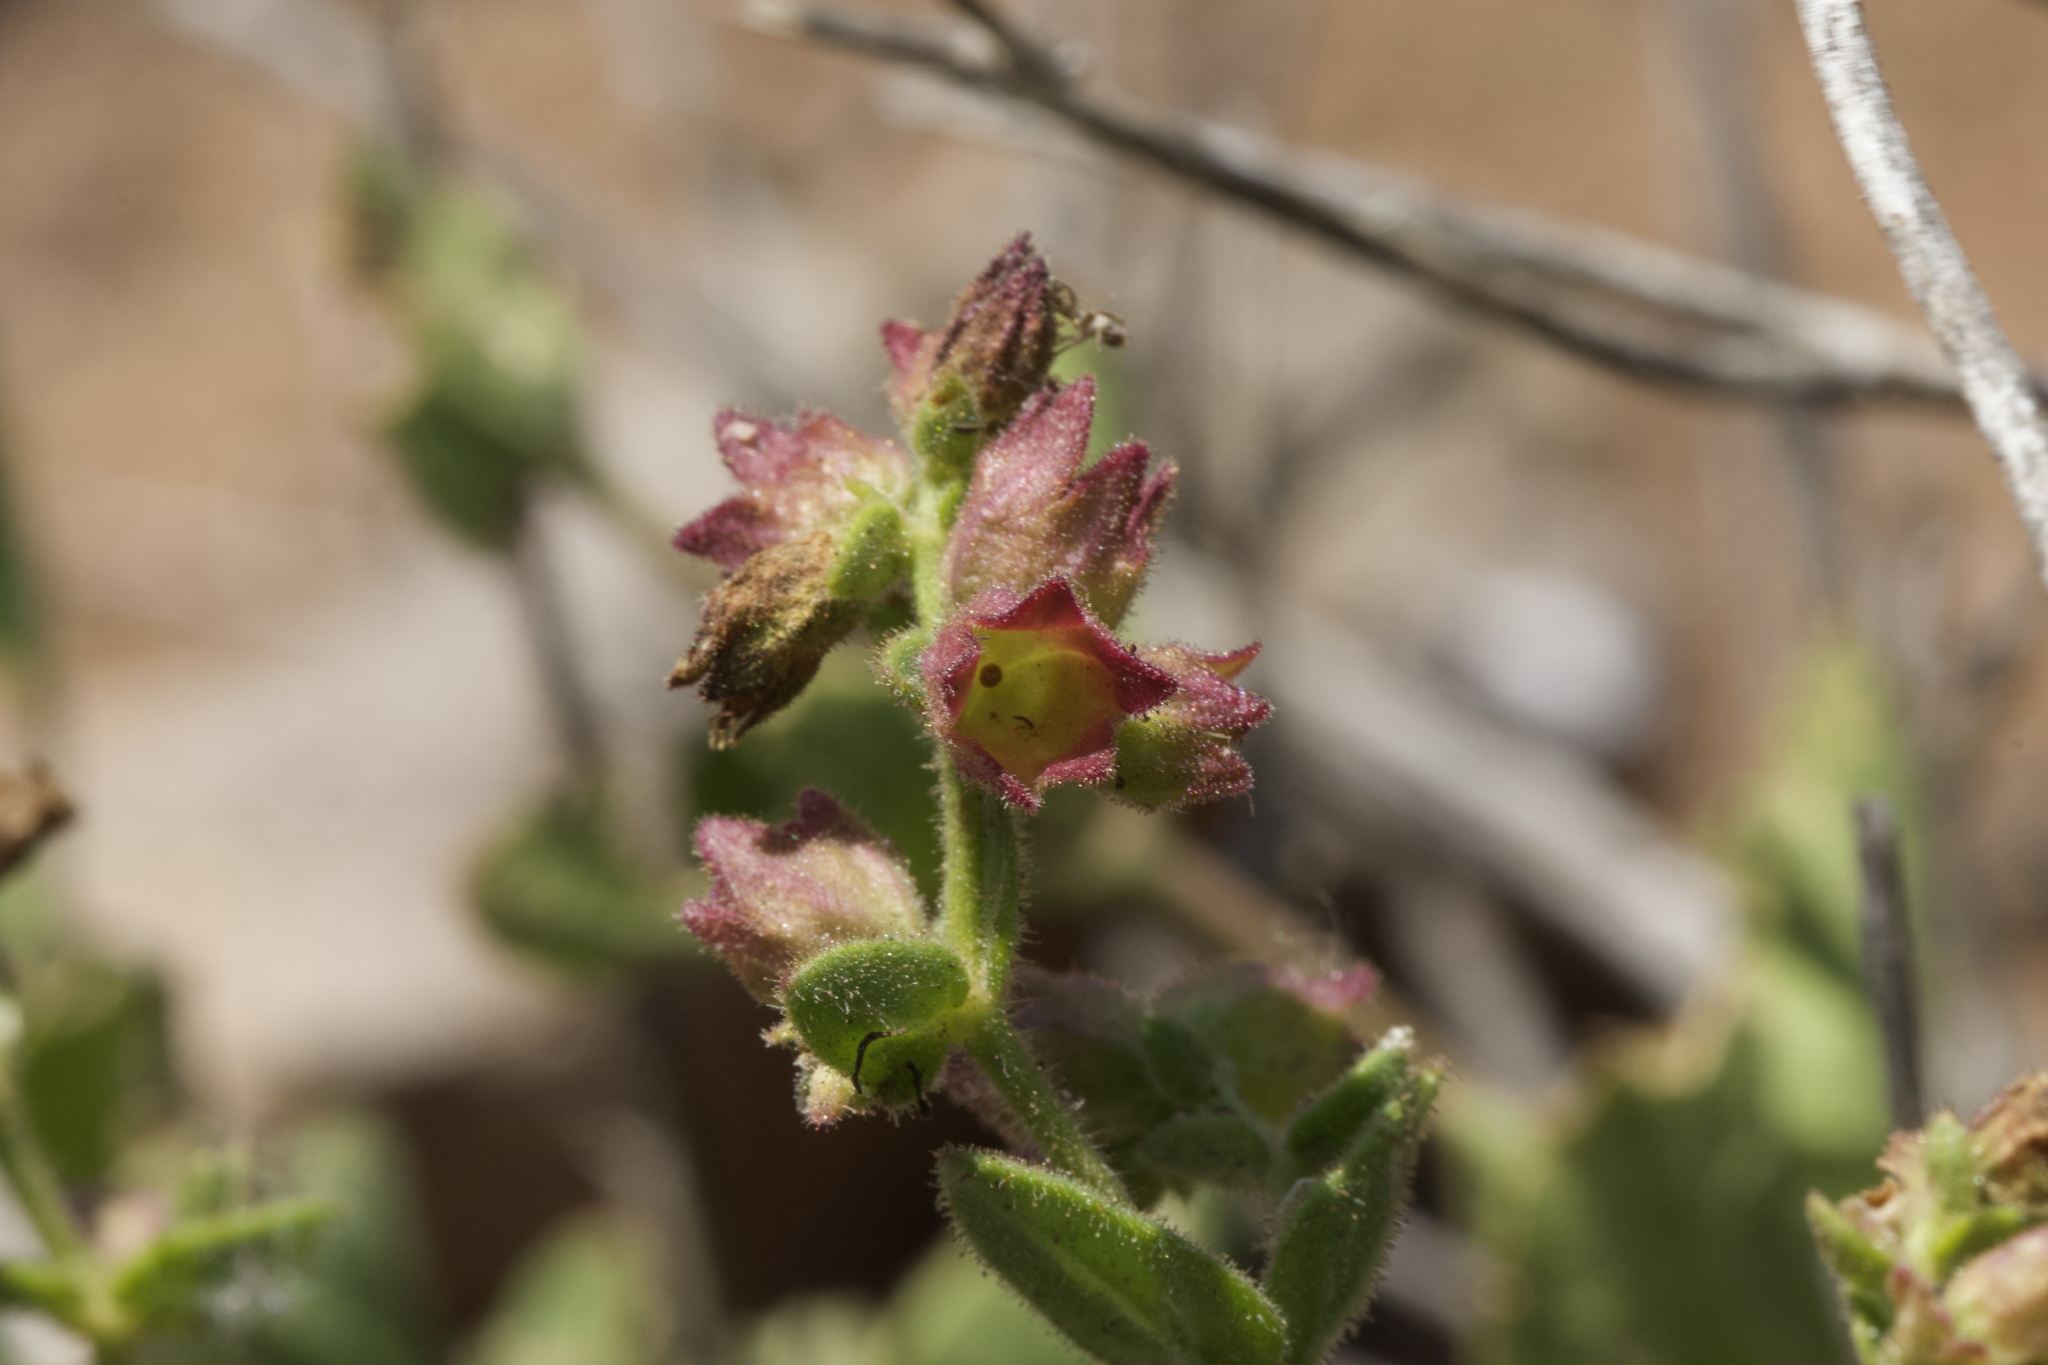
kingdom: Plantae
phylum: Tracheophyta
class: Magnoliopsida
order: Caryophyllales
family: Nyctaginaceae
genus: Mirabilis
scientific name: Mirabilis laevis
